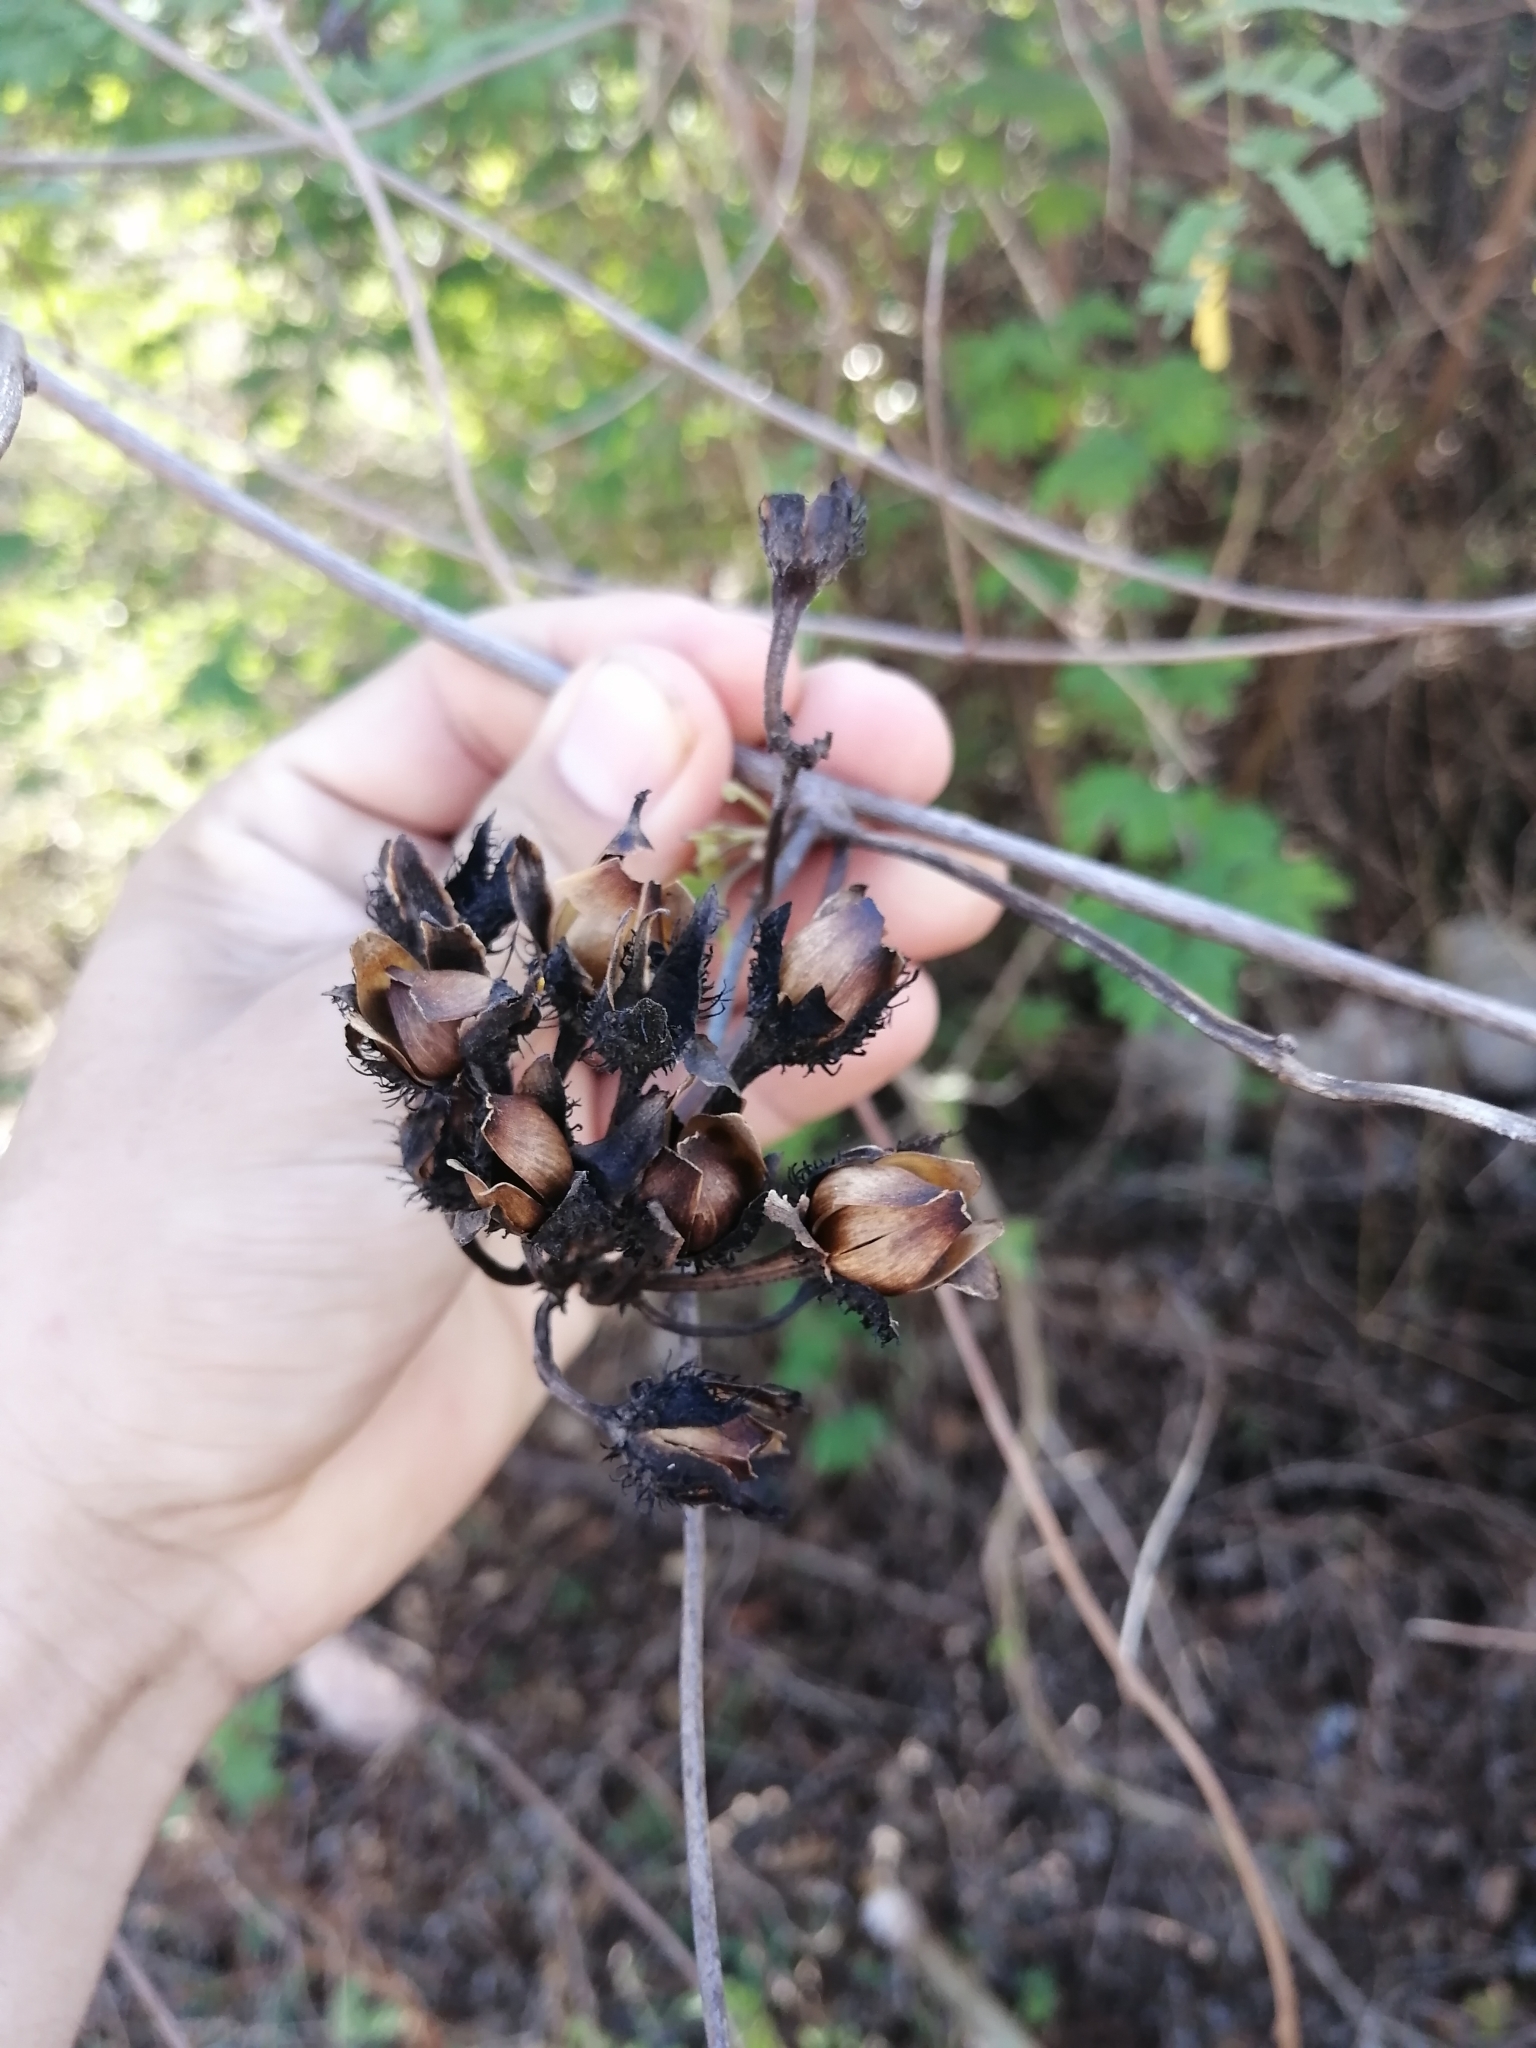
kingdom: Plantae
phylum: Tracheophyta
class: Magnoliopsida
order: Solanales
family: Convolvulaceae
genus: Ipomoea
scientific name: Ipomoea crinicalyx
